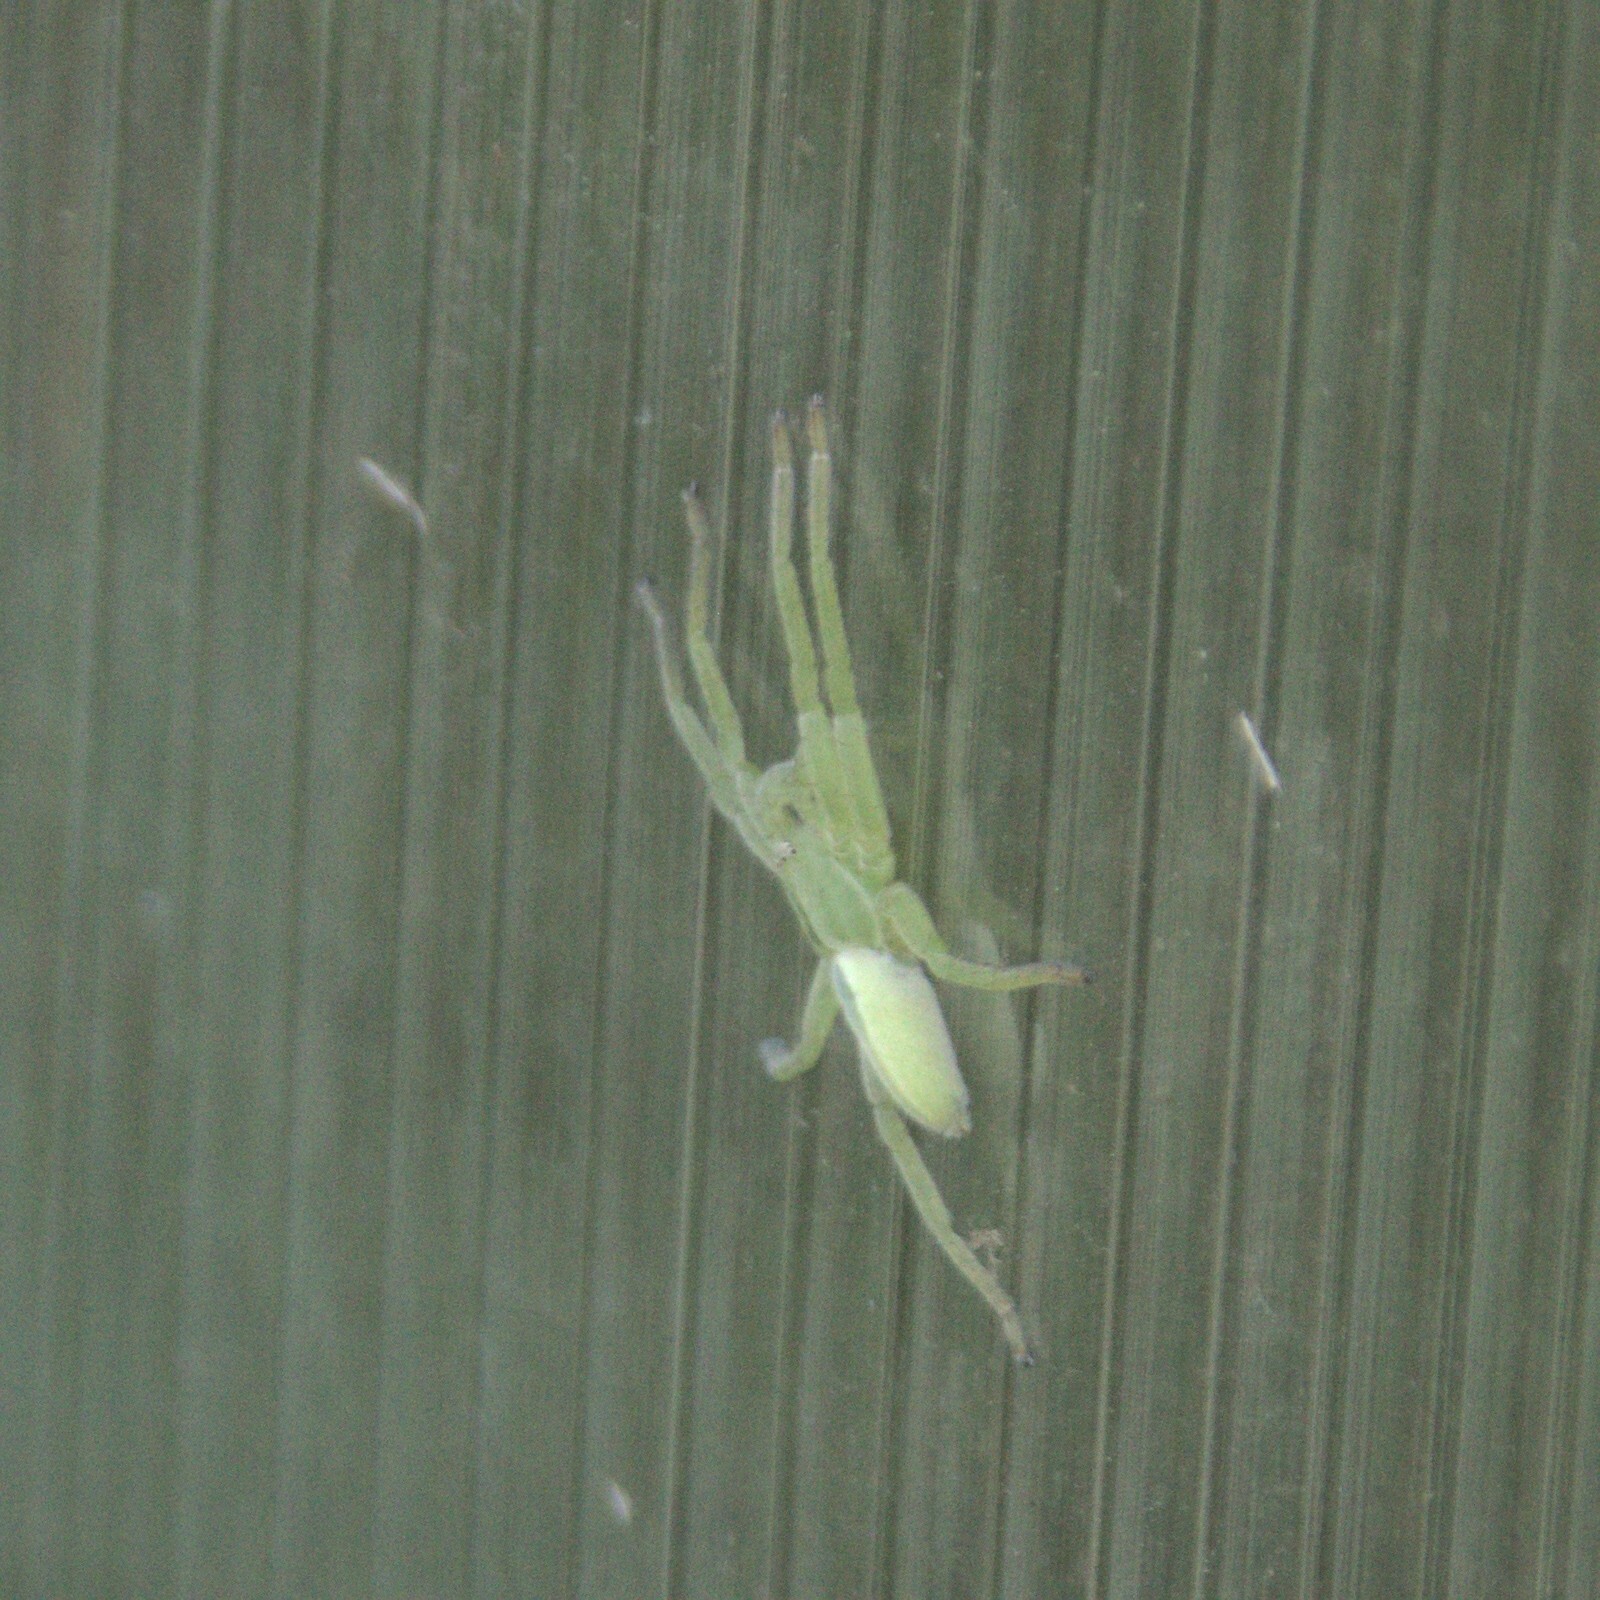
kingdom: Animalia
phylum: Arthropoda
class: Arachnida
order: Araneae
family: Sparassidae
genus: Micrommata
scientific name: Micrommata virescens
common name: Green spider
